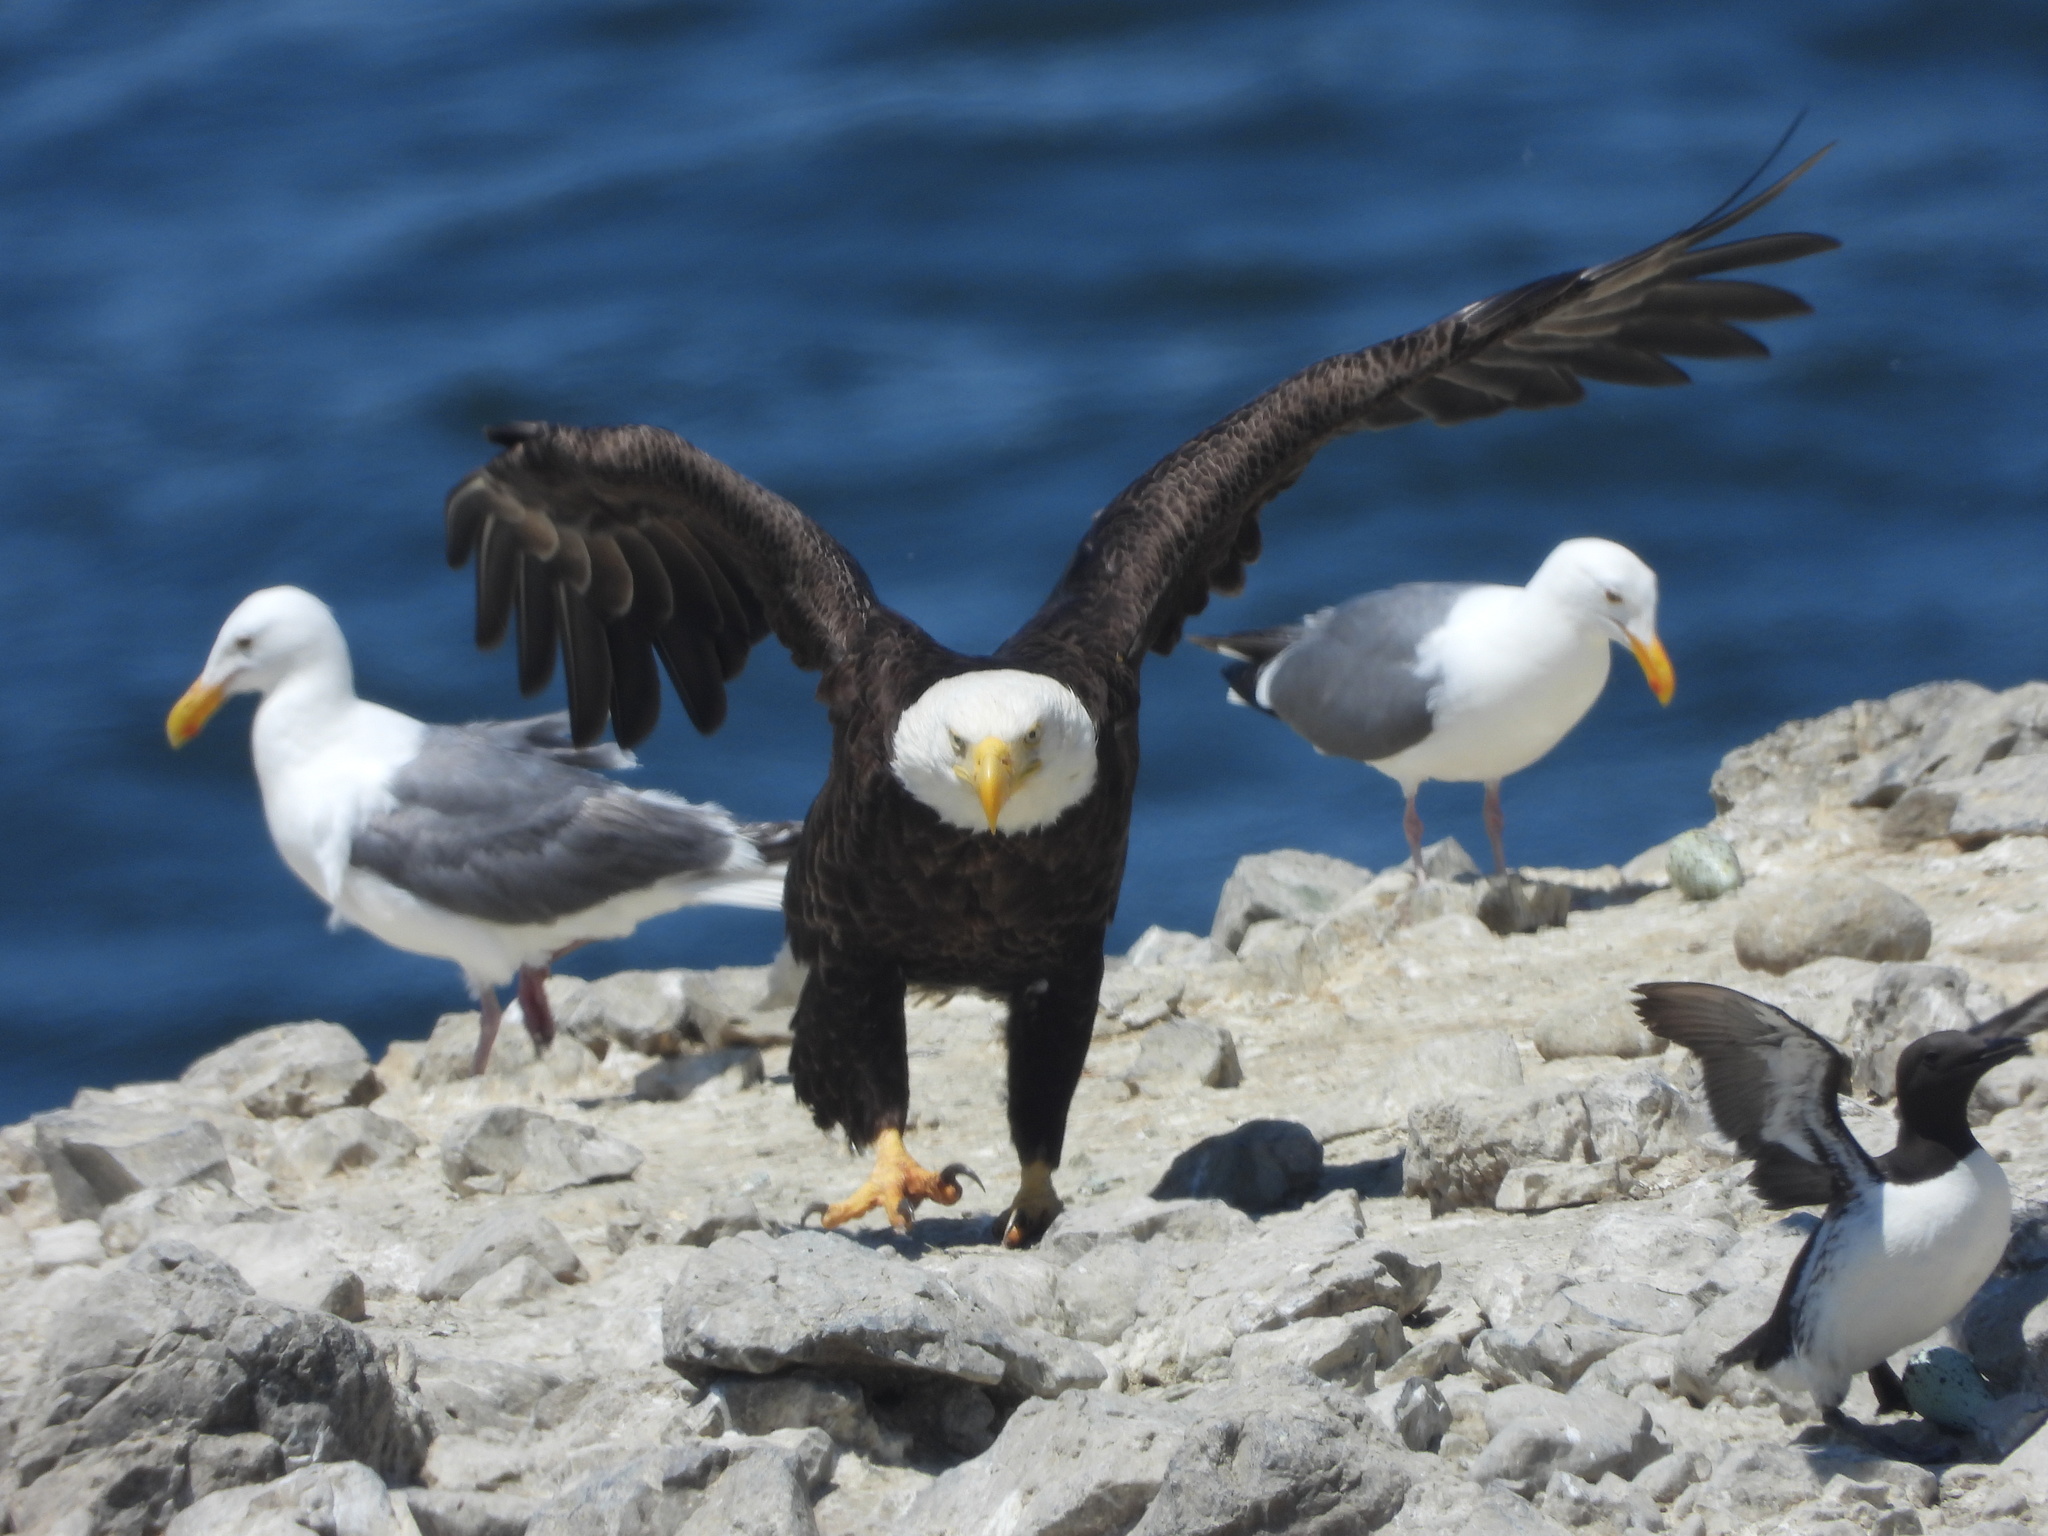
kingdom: Animalia
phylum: Chordata
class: Aves
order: Charadriiformes
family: Alcidae
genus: Uria
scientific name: Uria aalge
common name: Common murre
